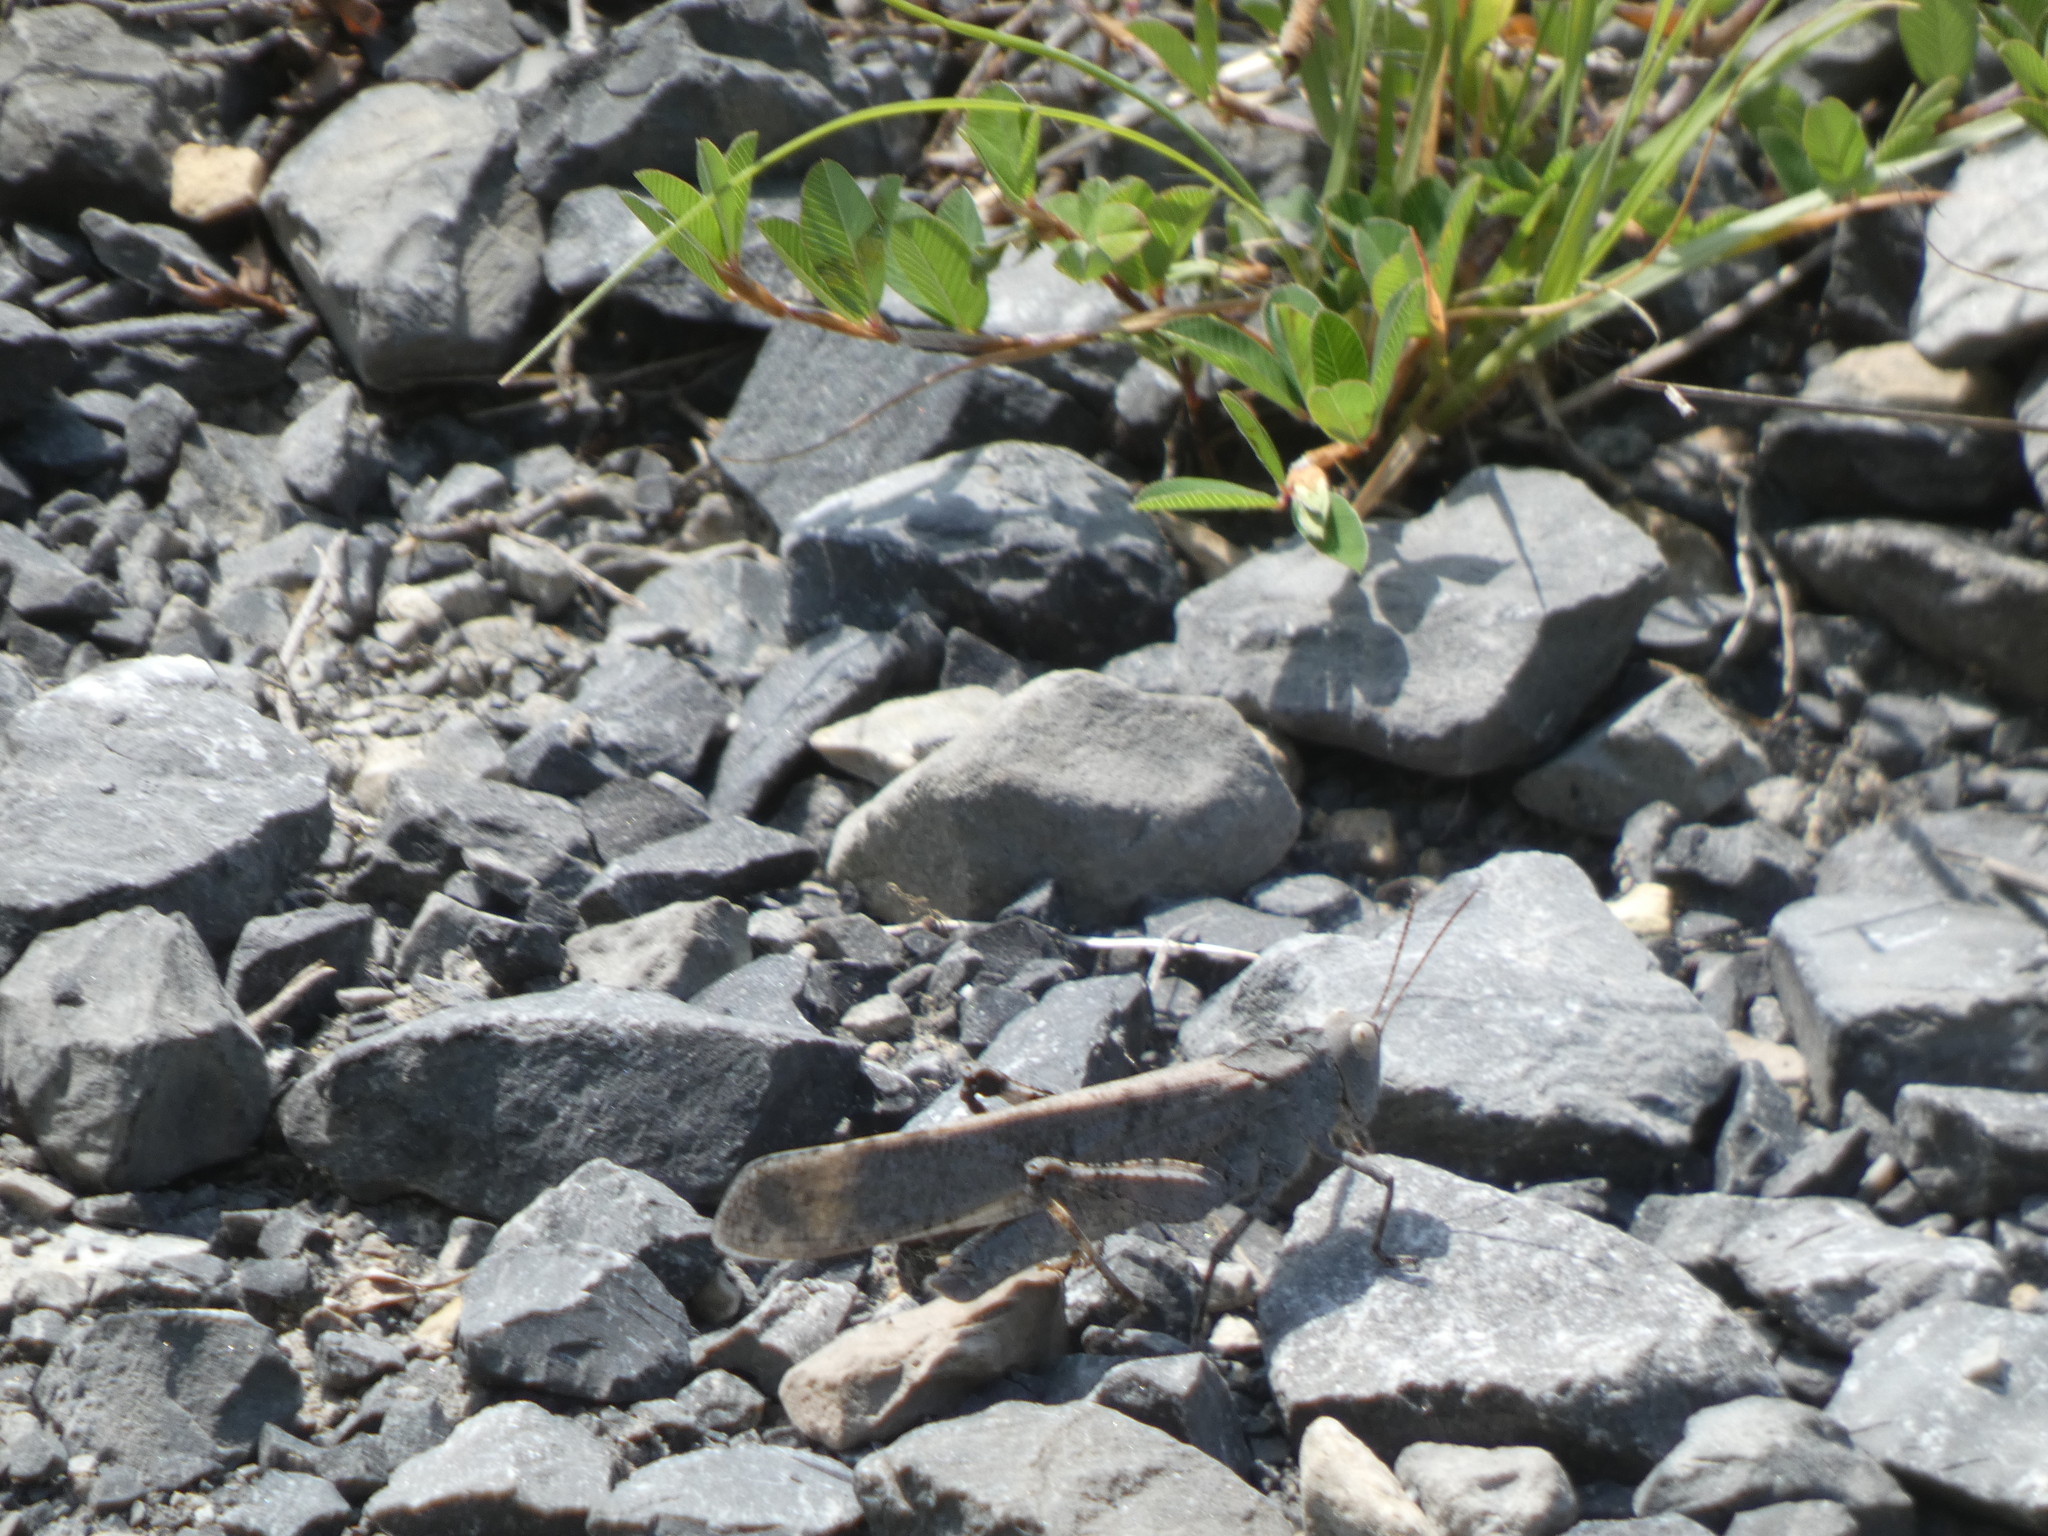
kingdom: Animalia
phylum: Arthropoda
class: Insecta
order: Orthoptera
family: Acrididae
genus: Dissosteira
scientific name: Dissosteira carolina
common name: Carolina grasshopper
